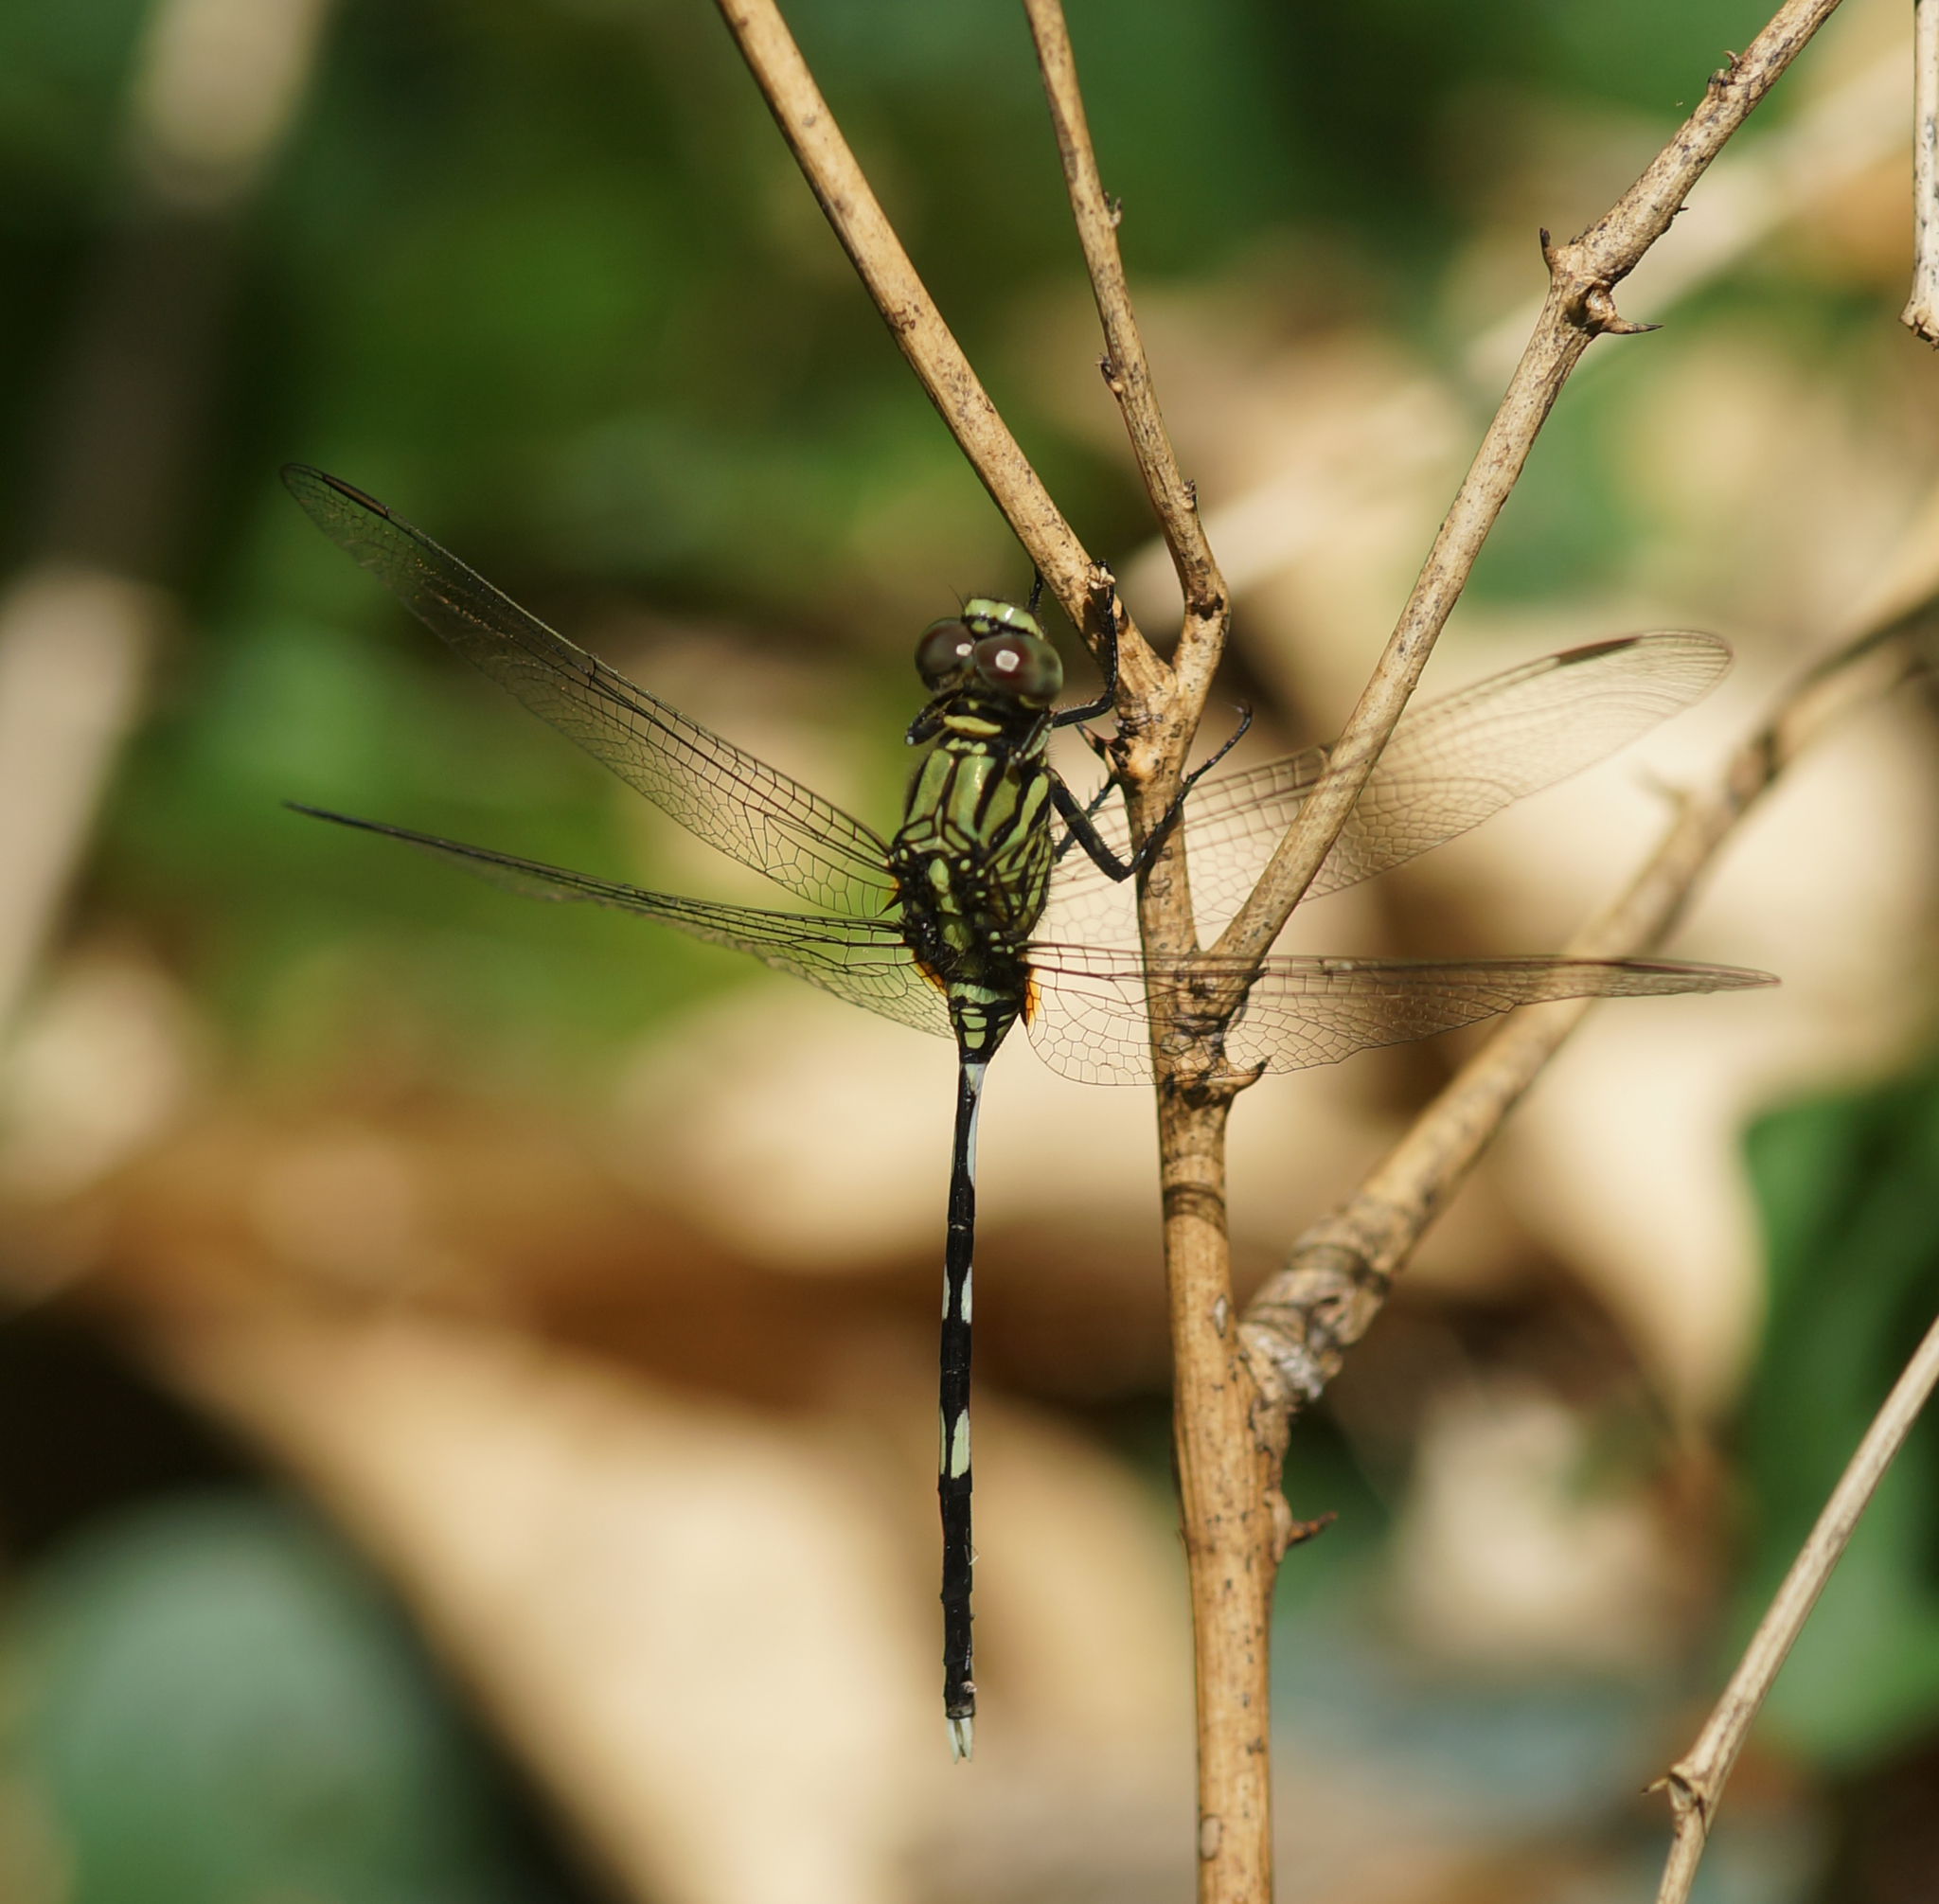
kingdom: Animalia
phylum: Arthropoda
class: Insecta
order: Odonata
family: Libellulidae
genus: Orthetrum
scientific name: Orthetrum sabina
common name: Slender skimmer
